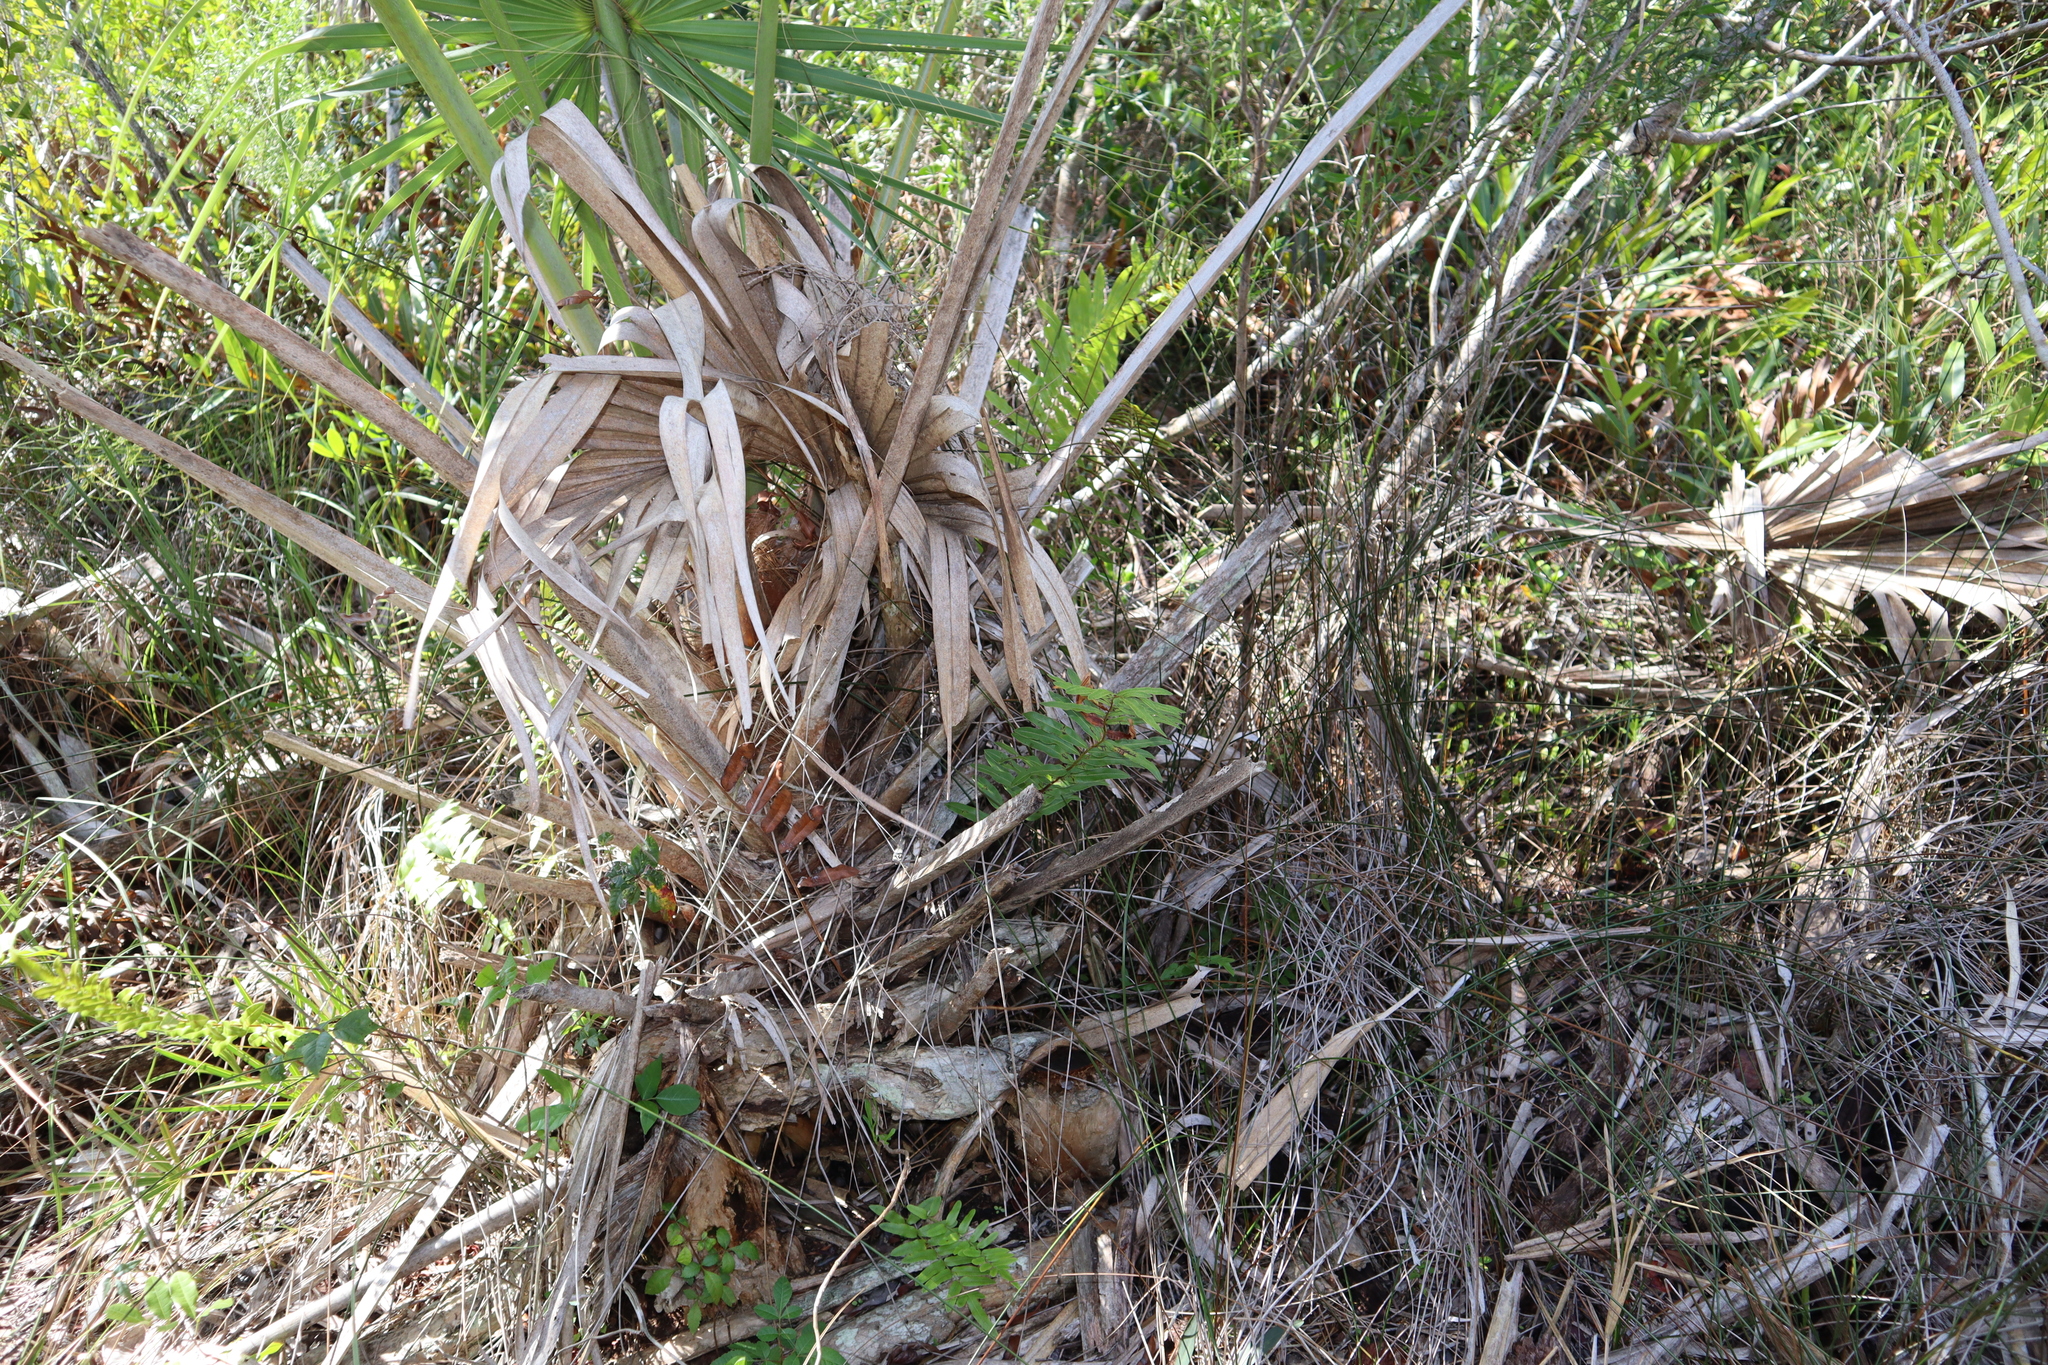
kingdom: Plantae
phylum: Tracheophyta
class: Magnoliopsida
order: Sapindales
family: Anacardiaceae
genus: Toxicodendron
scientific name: Toxicodendron radicans
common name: Poison ivy
